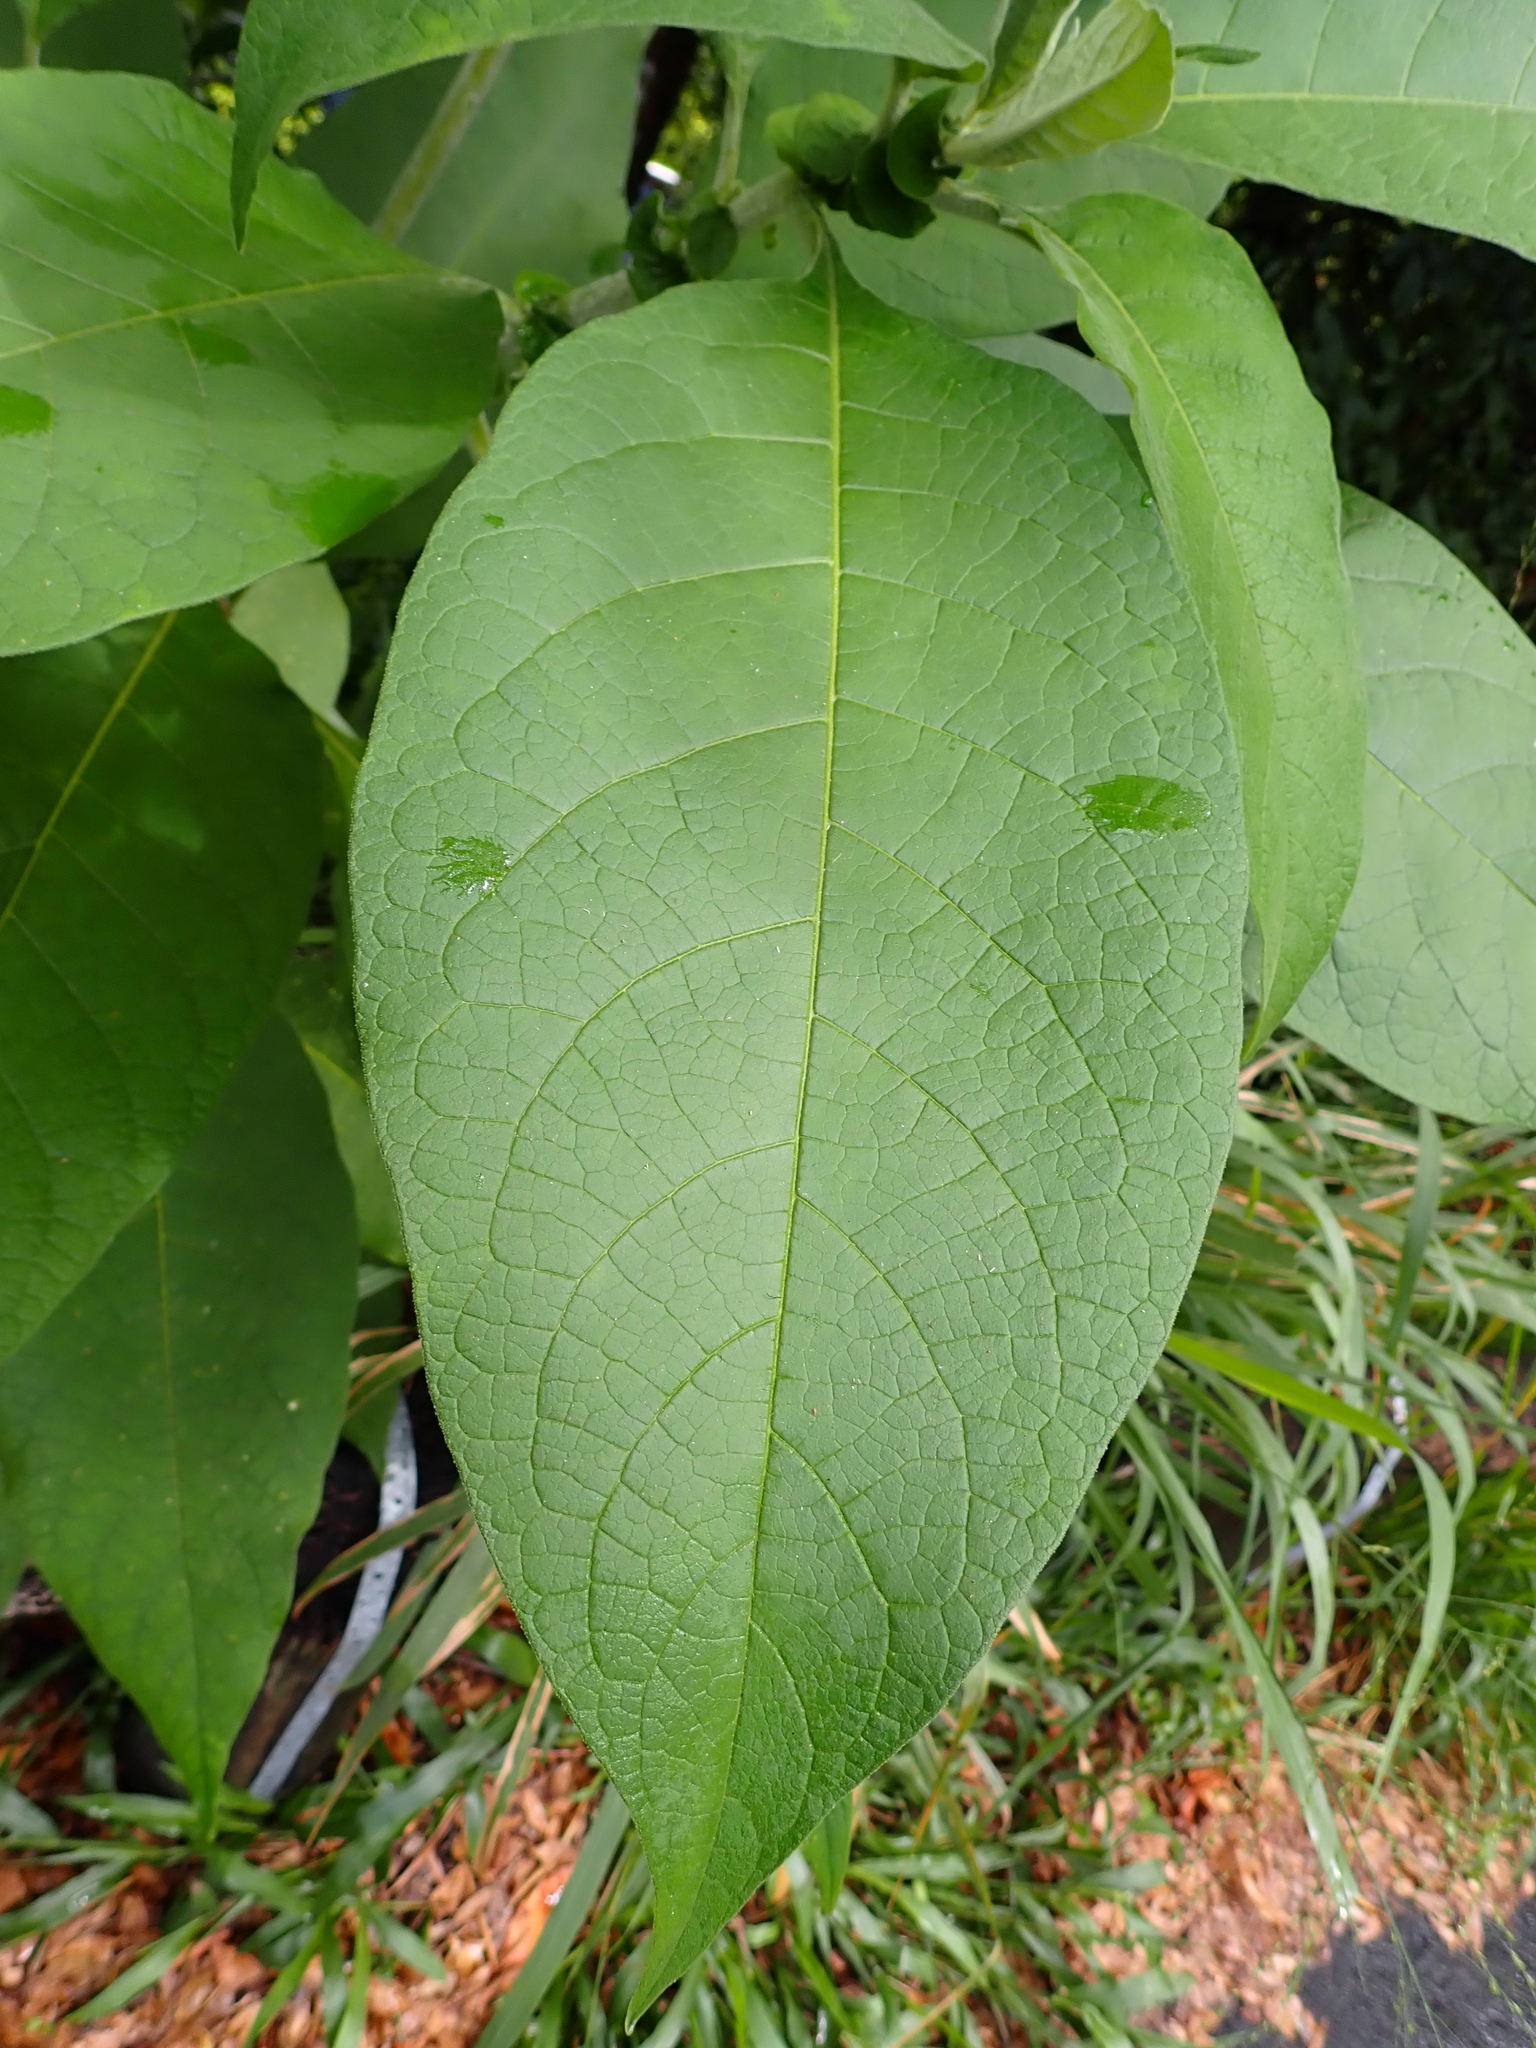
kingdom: Plantae
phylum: Tracheophyta
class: Magnoliopsida
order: Solanales
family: Solanaceae
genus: Solanum
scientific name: Solanum mauritianum
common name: Earleaf nightshade
